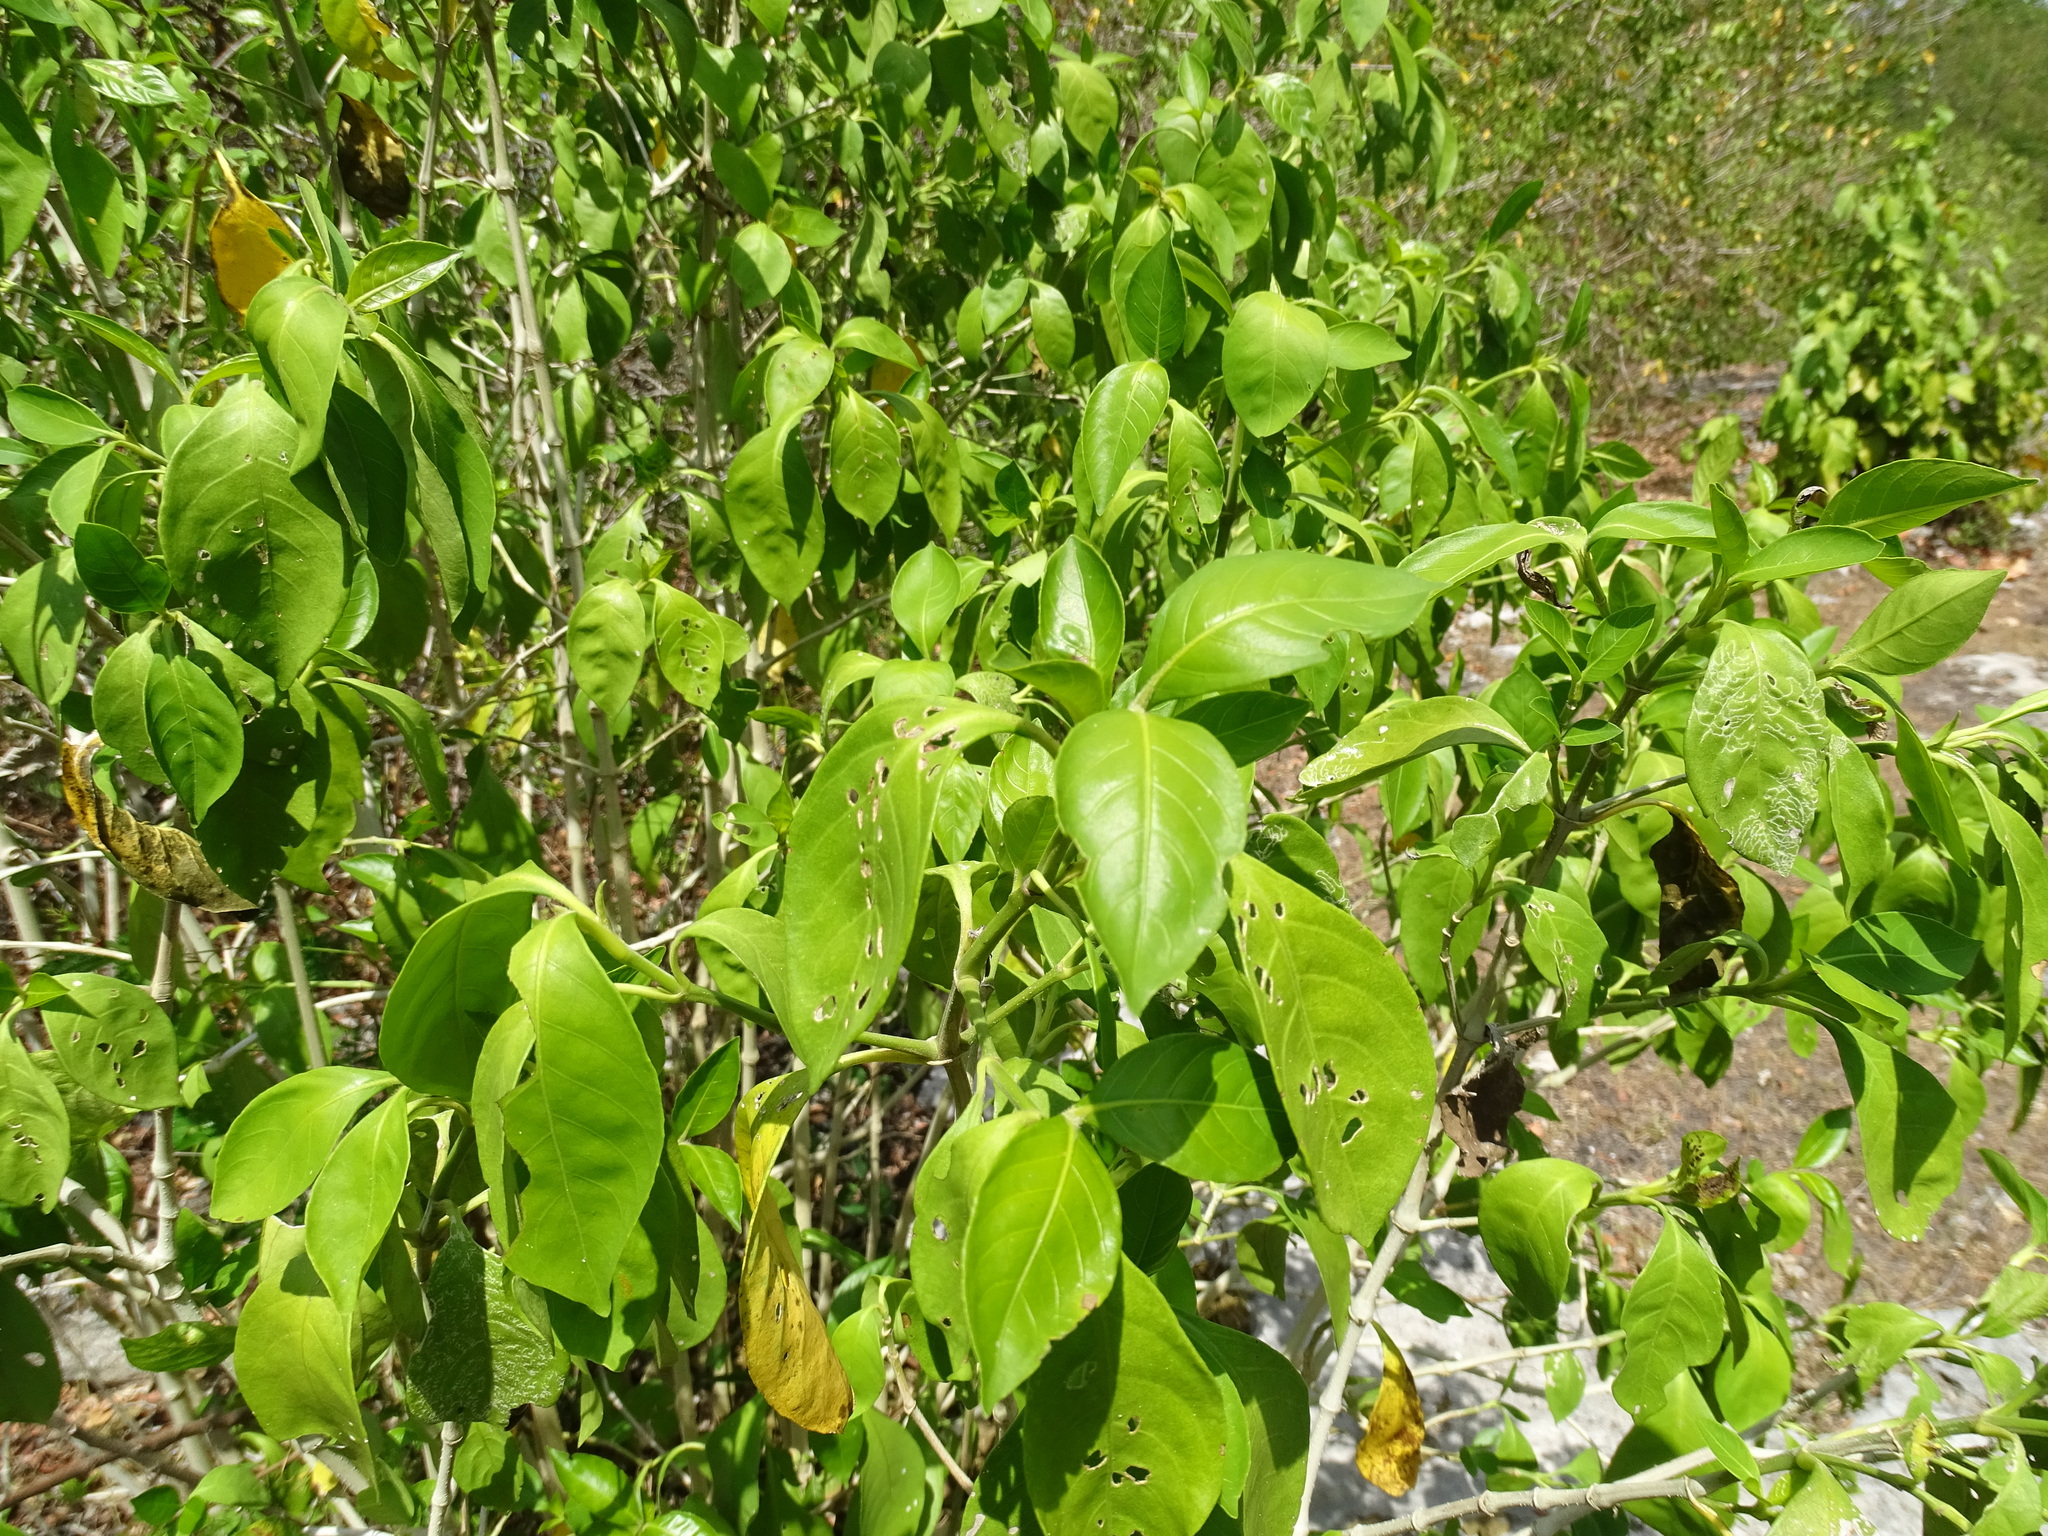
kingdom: Plantae
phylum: Tracheophyta
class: Magnoliopsida
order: Lamiales
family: Acanthaceae
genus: Bravaisia
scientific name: Bravaisia berlandieriana
